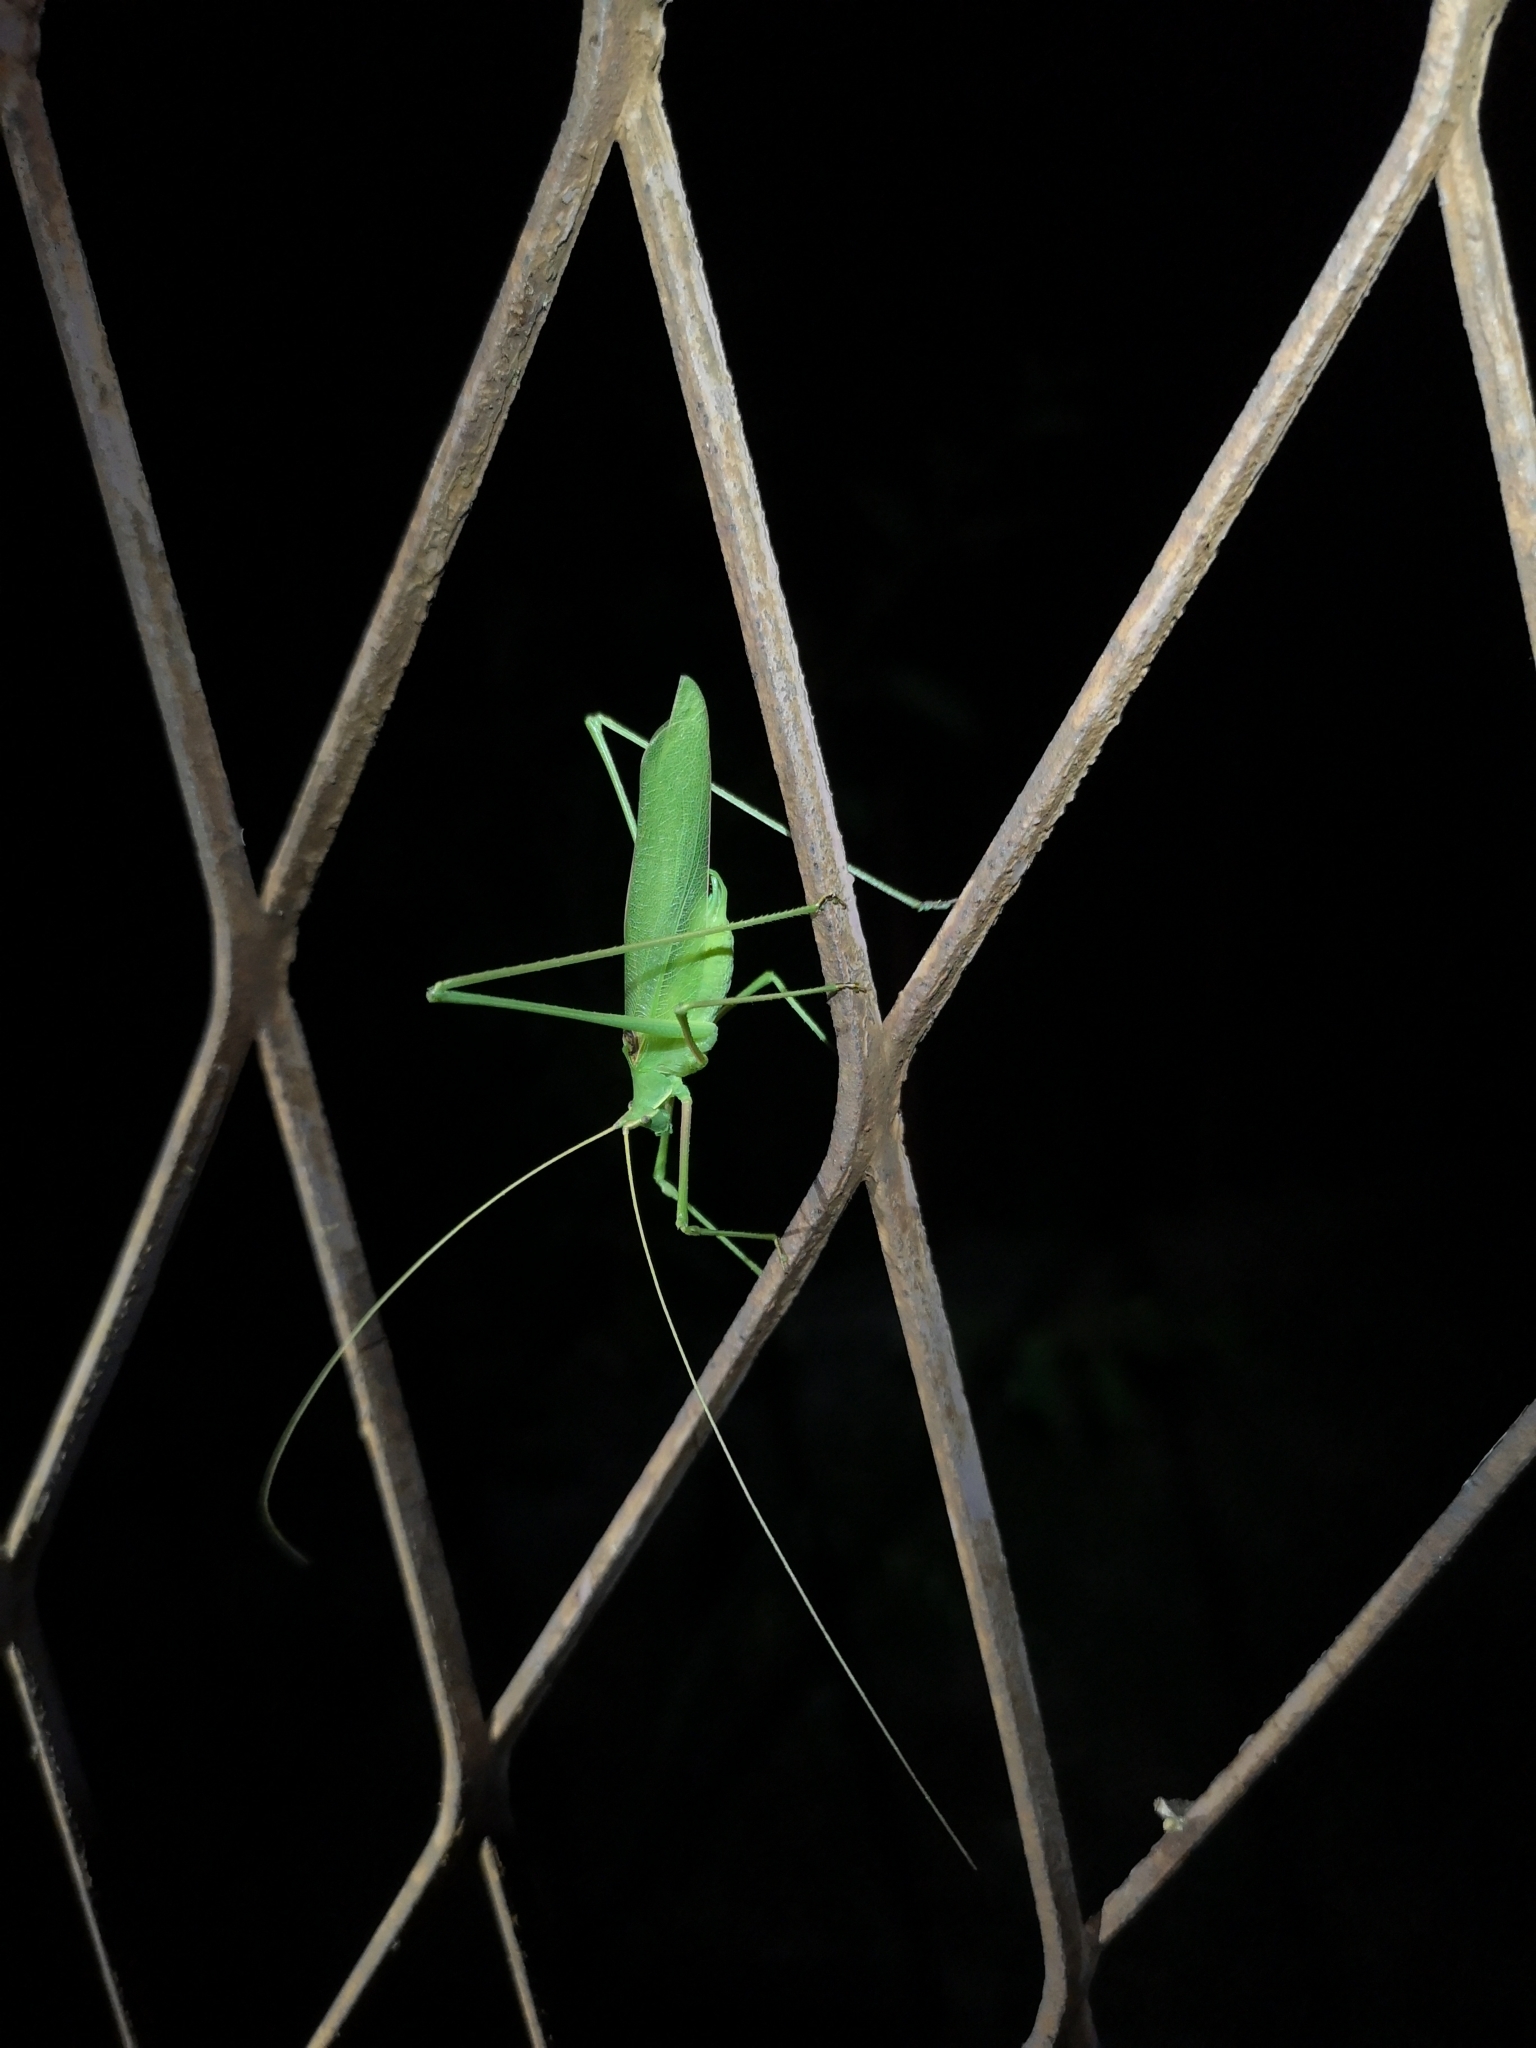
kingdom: Animalia
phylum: Arthropoda
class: Insecta
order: Orthoptera
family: Tettigoniidae
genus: Acrometopa
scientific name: Acrometopa macropoda
